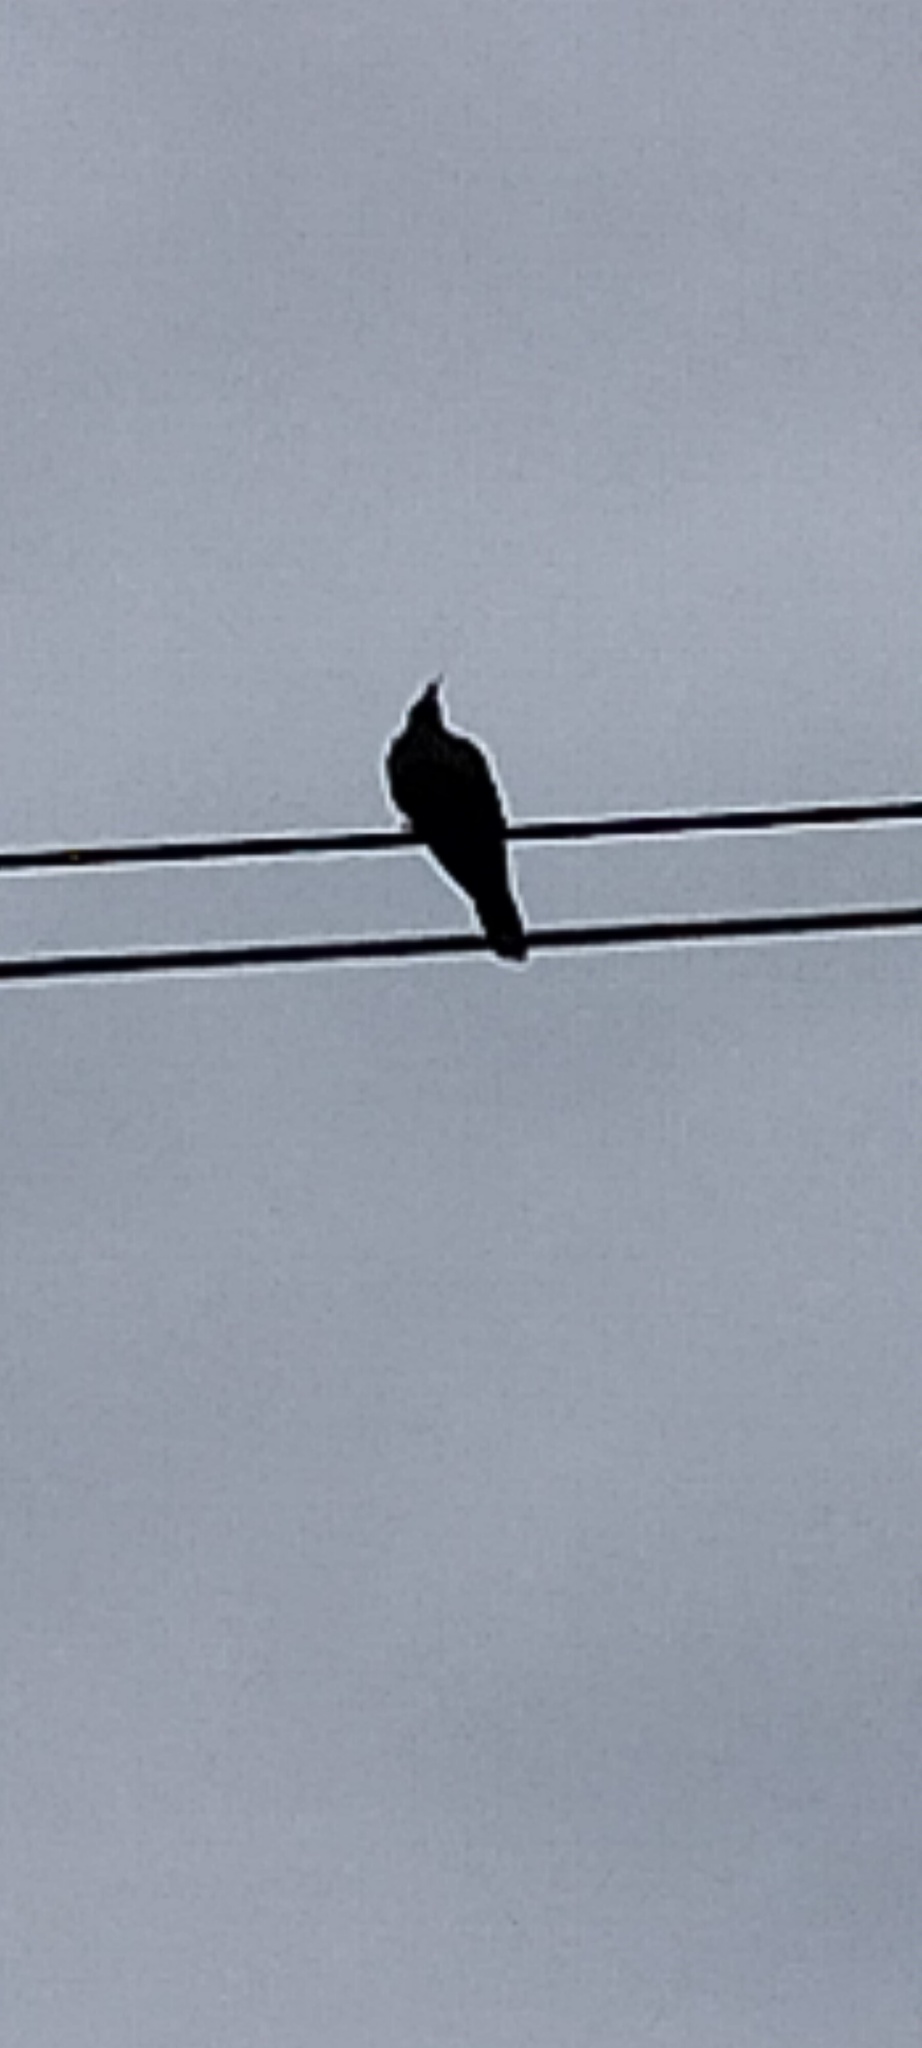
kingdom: Animalia
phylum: Chordata
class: Aves
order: Columbiformes
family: Columbidae
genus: Ocyphaps
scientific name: Ocyphaps lophotes
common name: Crested pigeon
